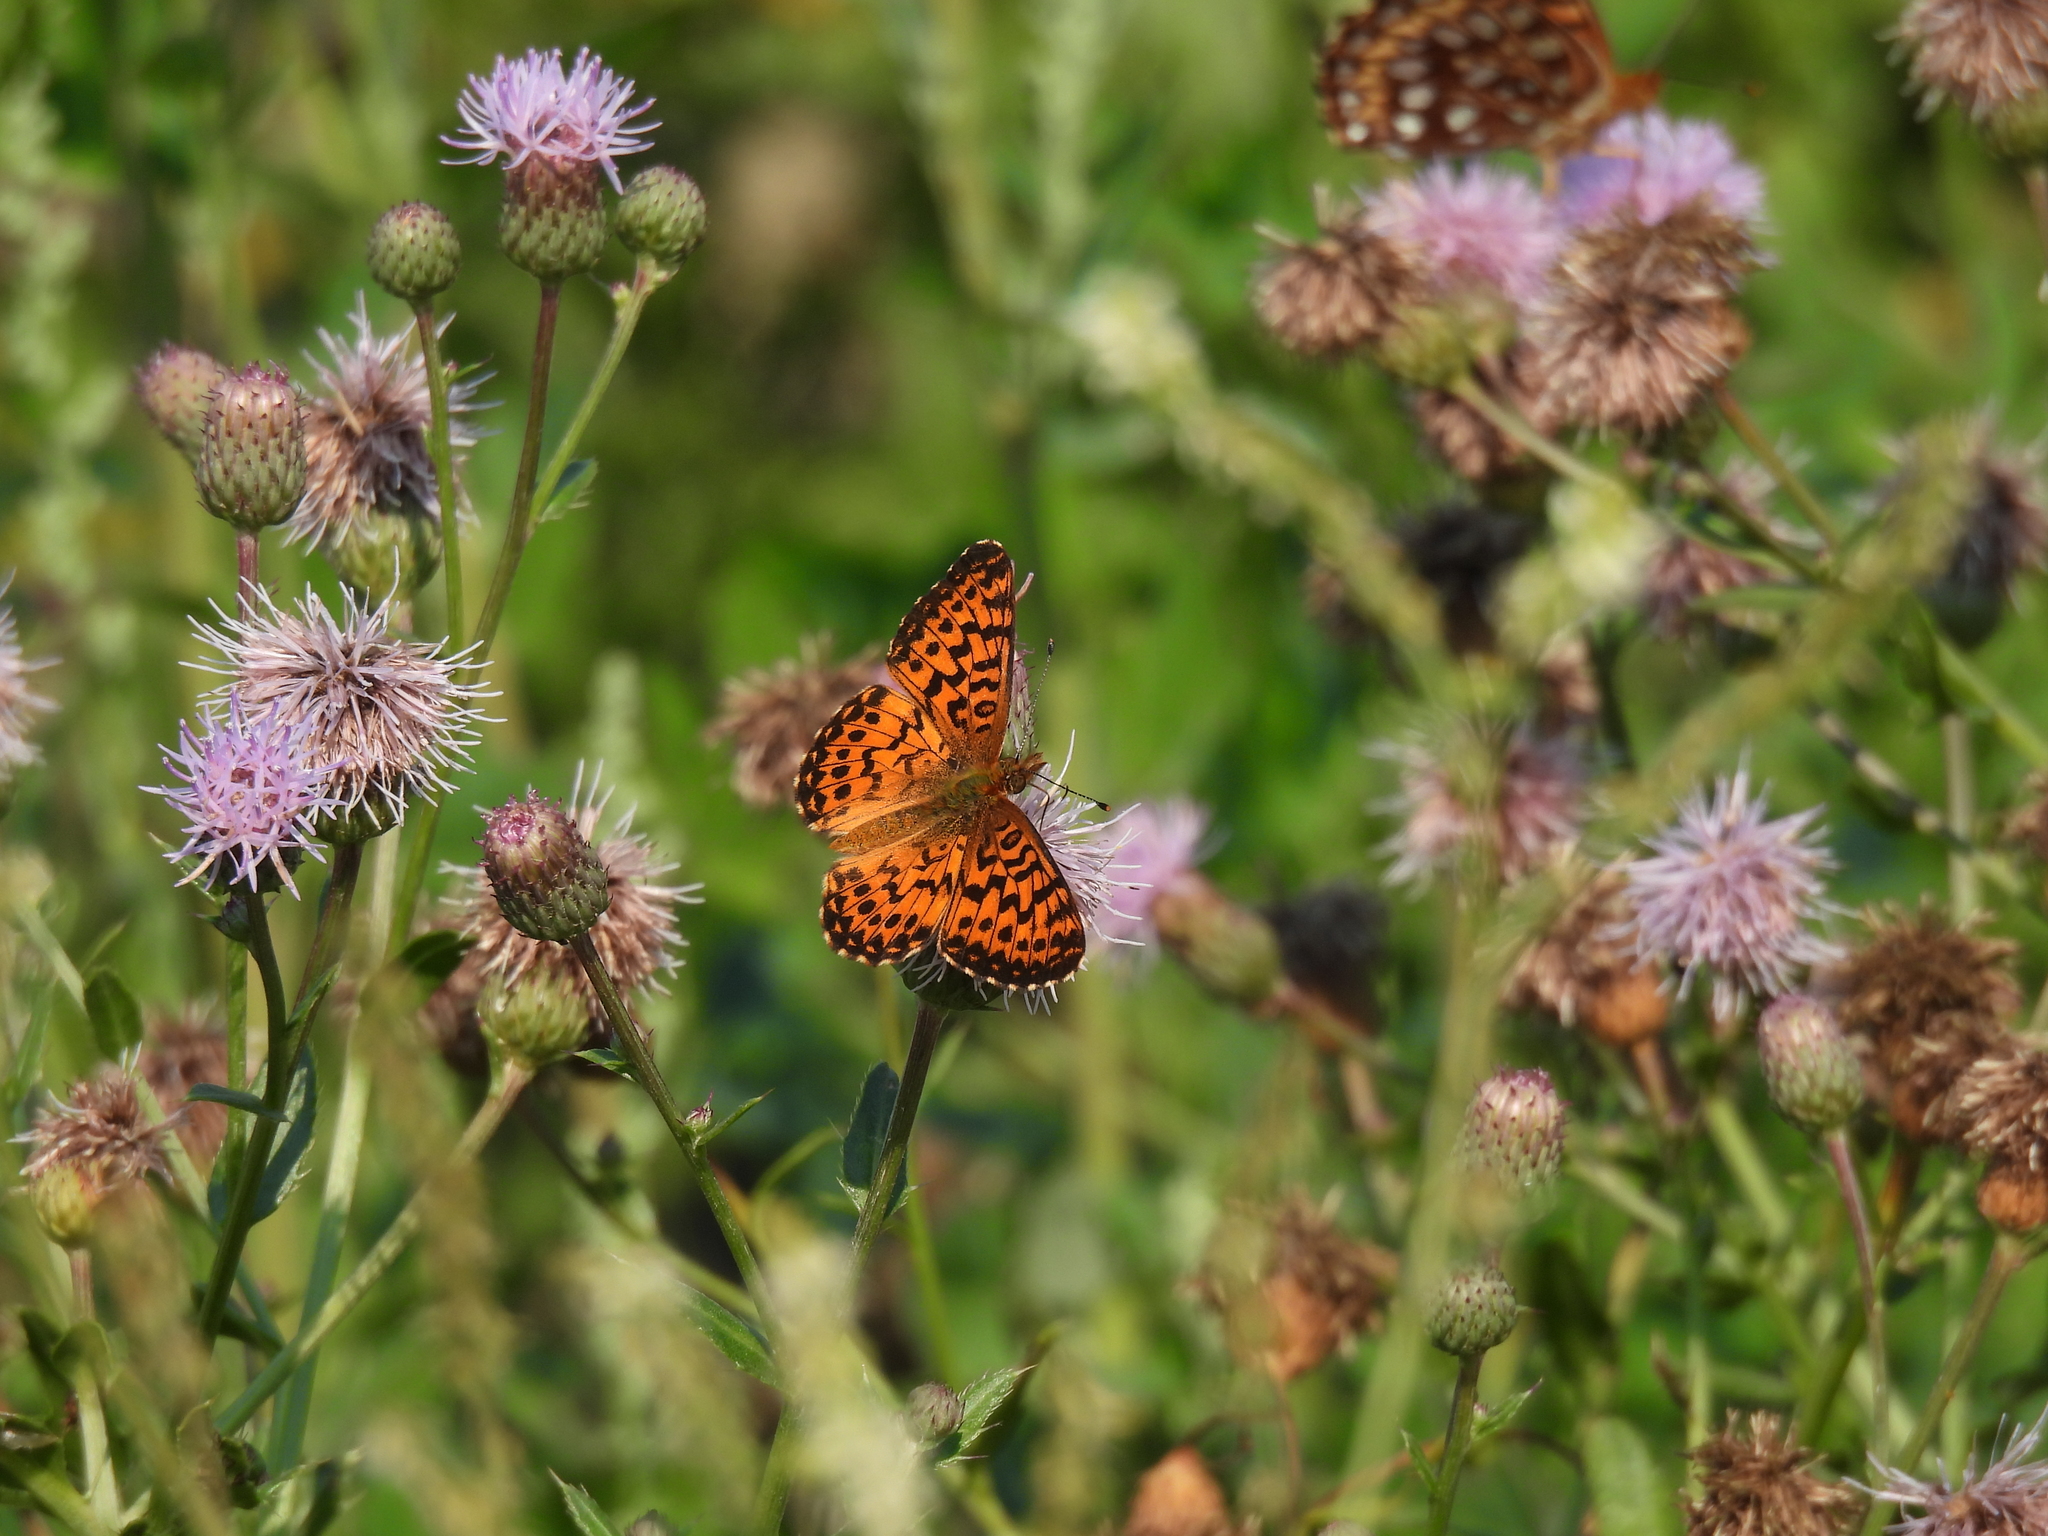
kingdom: Animalia
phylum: Arthropoda
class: Insecta
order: Lepidoptera
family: Nymphalidae
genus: Boloria
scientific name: Boloria chariclea
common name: Arctic fritillary
